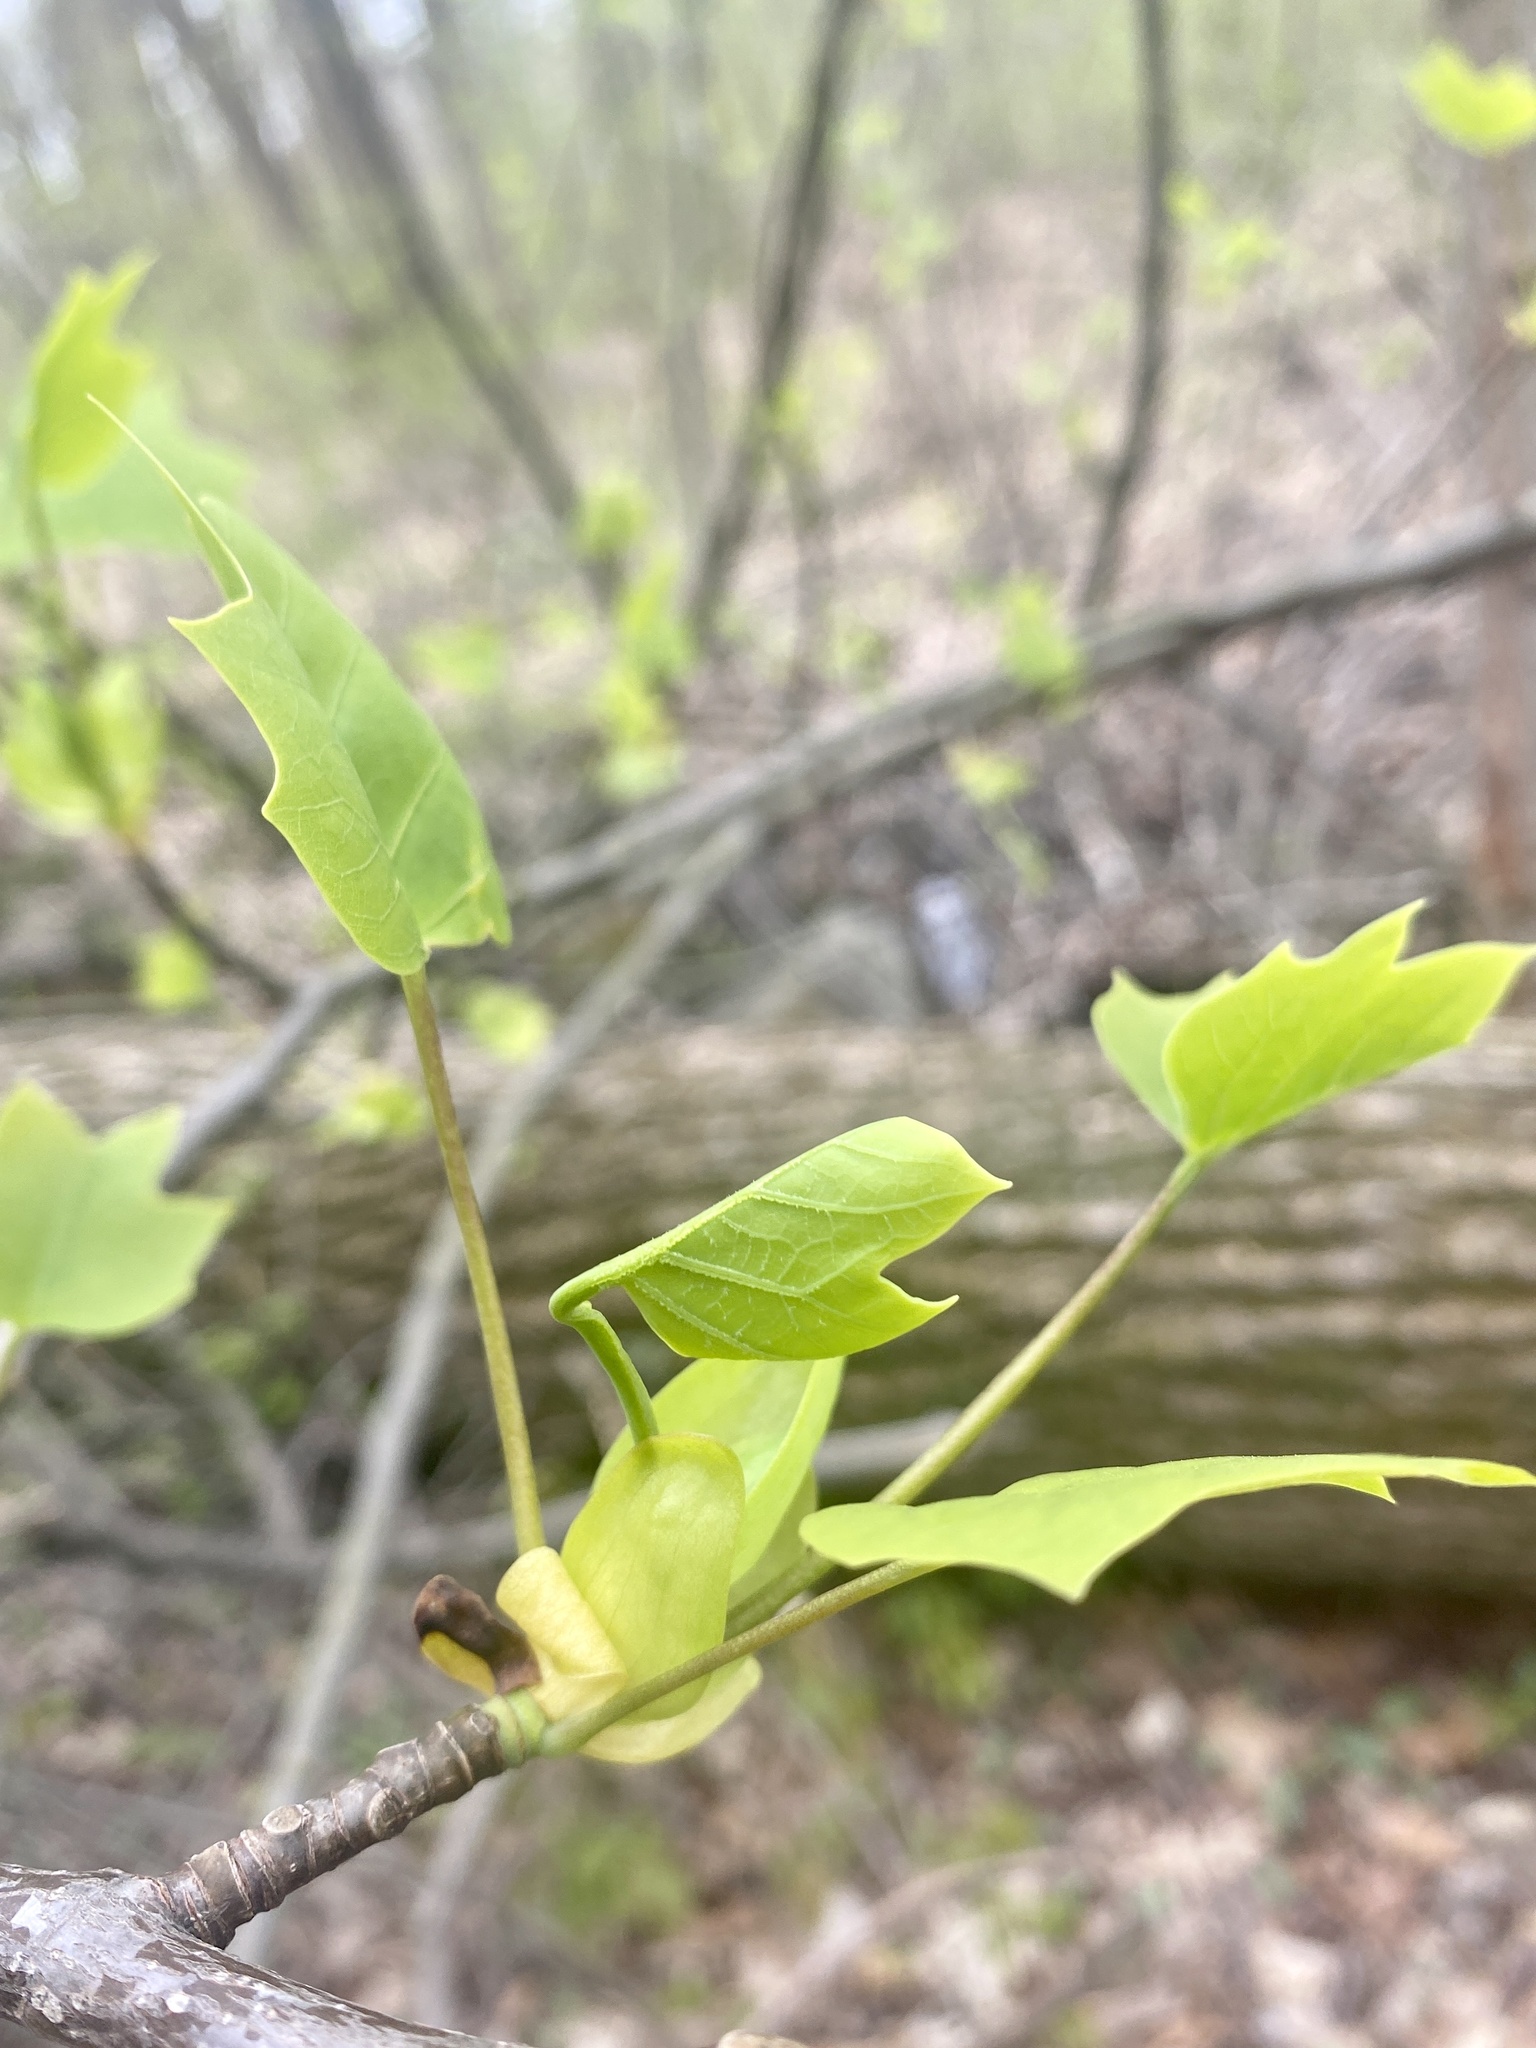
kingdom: Plantae
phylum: Tracheophyta
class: Magnoliopsida
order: Magnoliales
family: Magnoliaceae
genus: Liriodendron
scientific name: Liriodendron tulipifera
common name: Tulip tree
